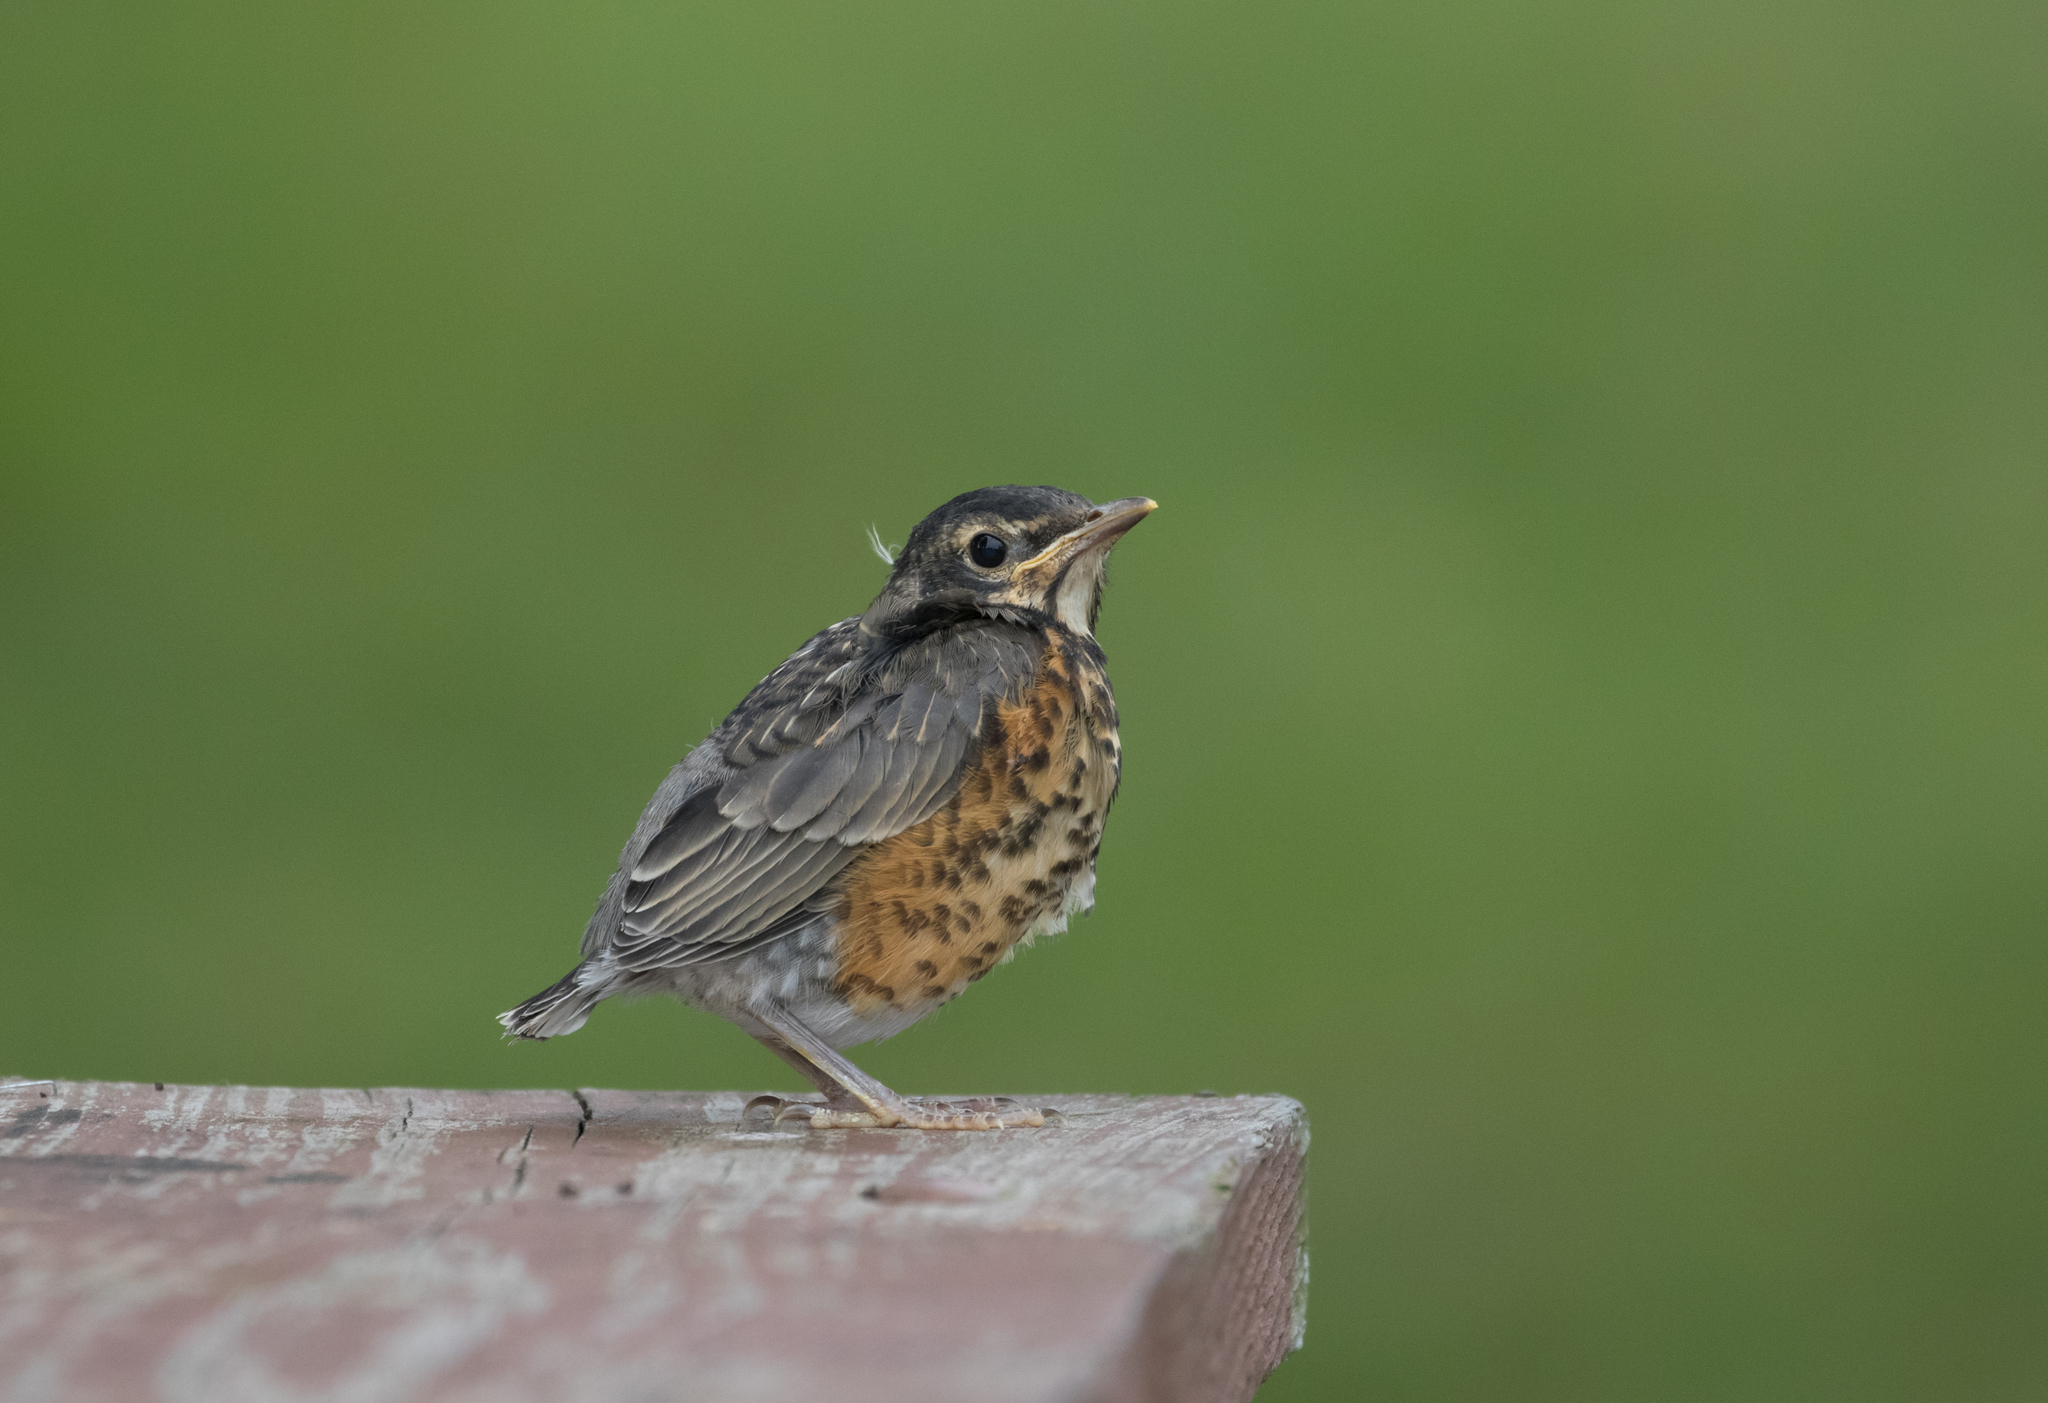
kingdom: Animalia
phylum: Chordata
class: Aves
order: Passeriformes
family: Turdidae
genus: Turdus
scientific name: Turdus migratorius
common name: American robin
